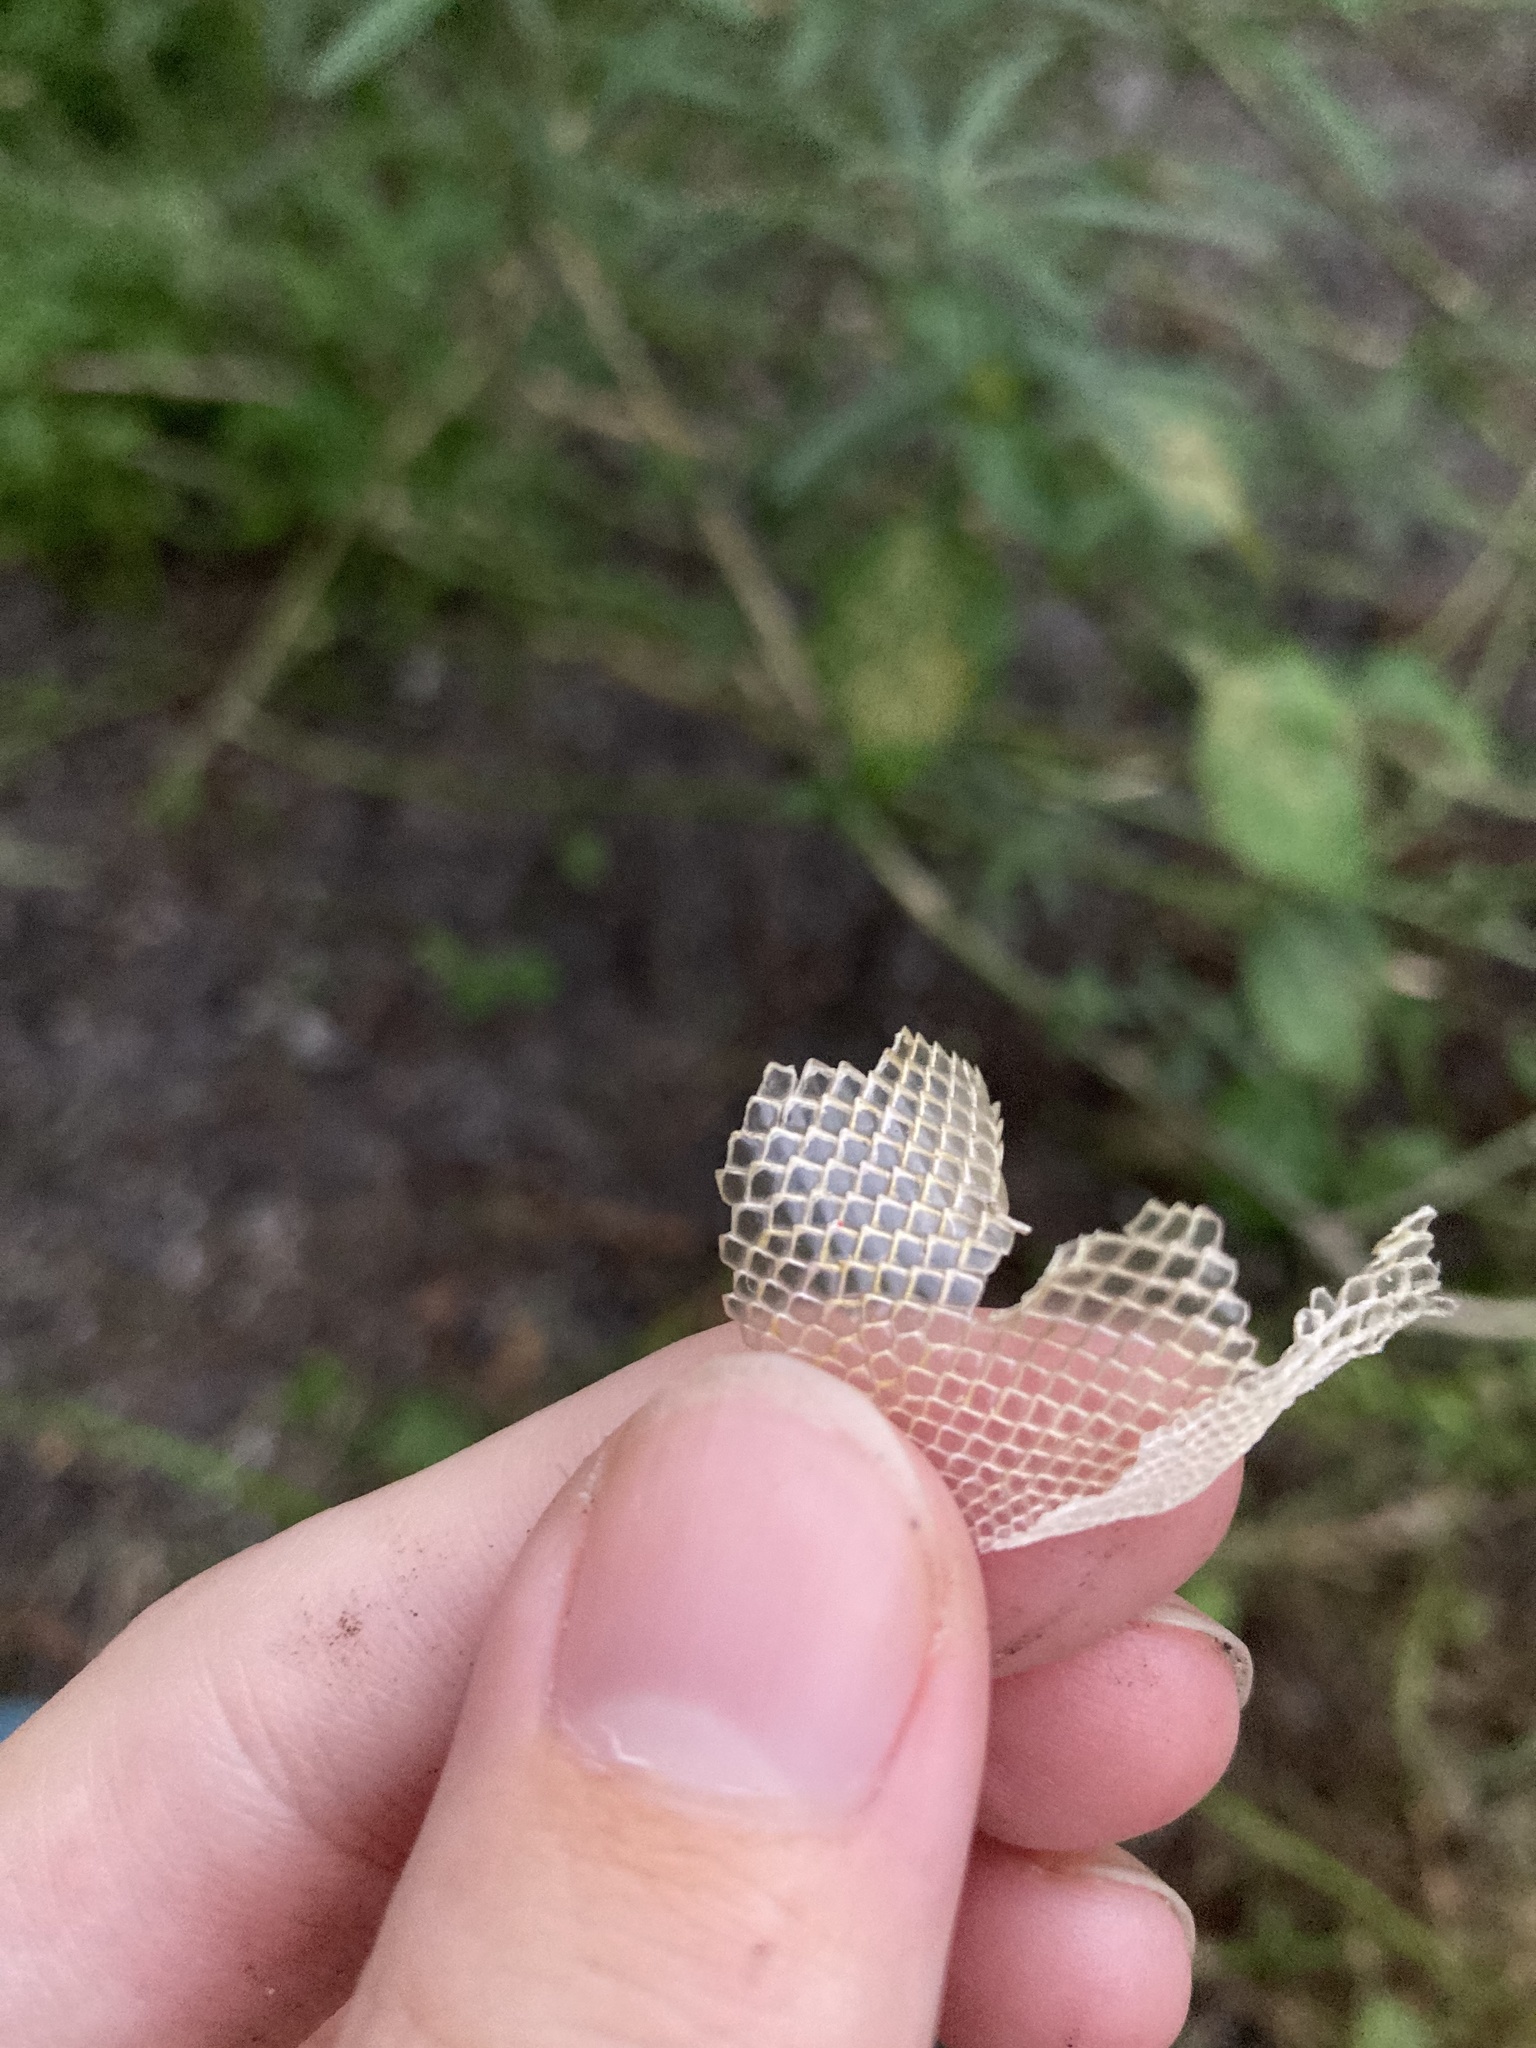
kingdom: Animalia
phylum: Chordata
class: Squamata
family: Iguanidae
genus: Iguana
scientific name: Iguana iguana
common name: Green iguana
